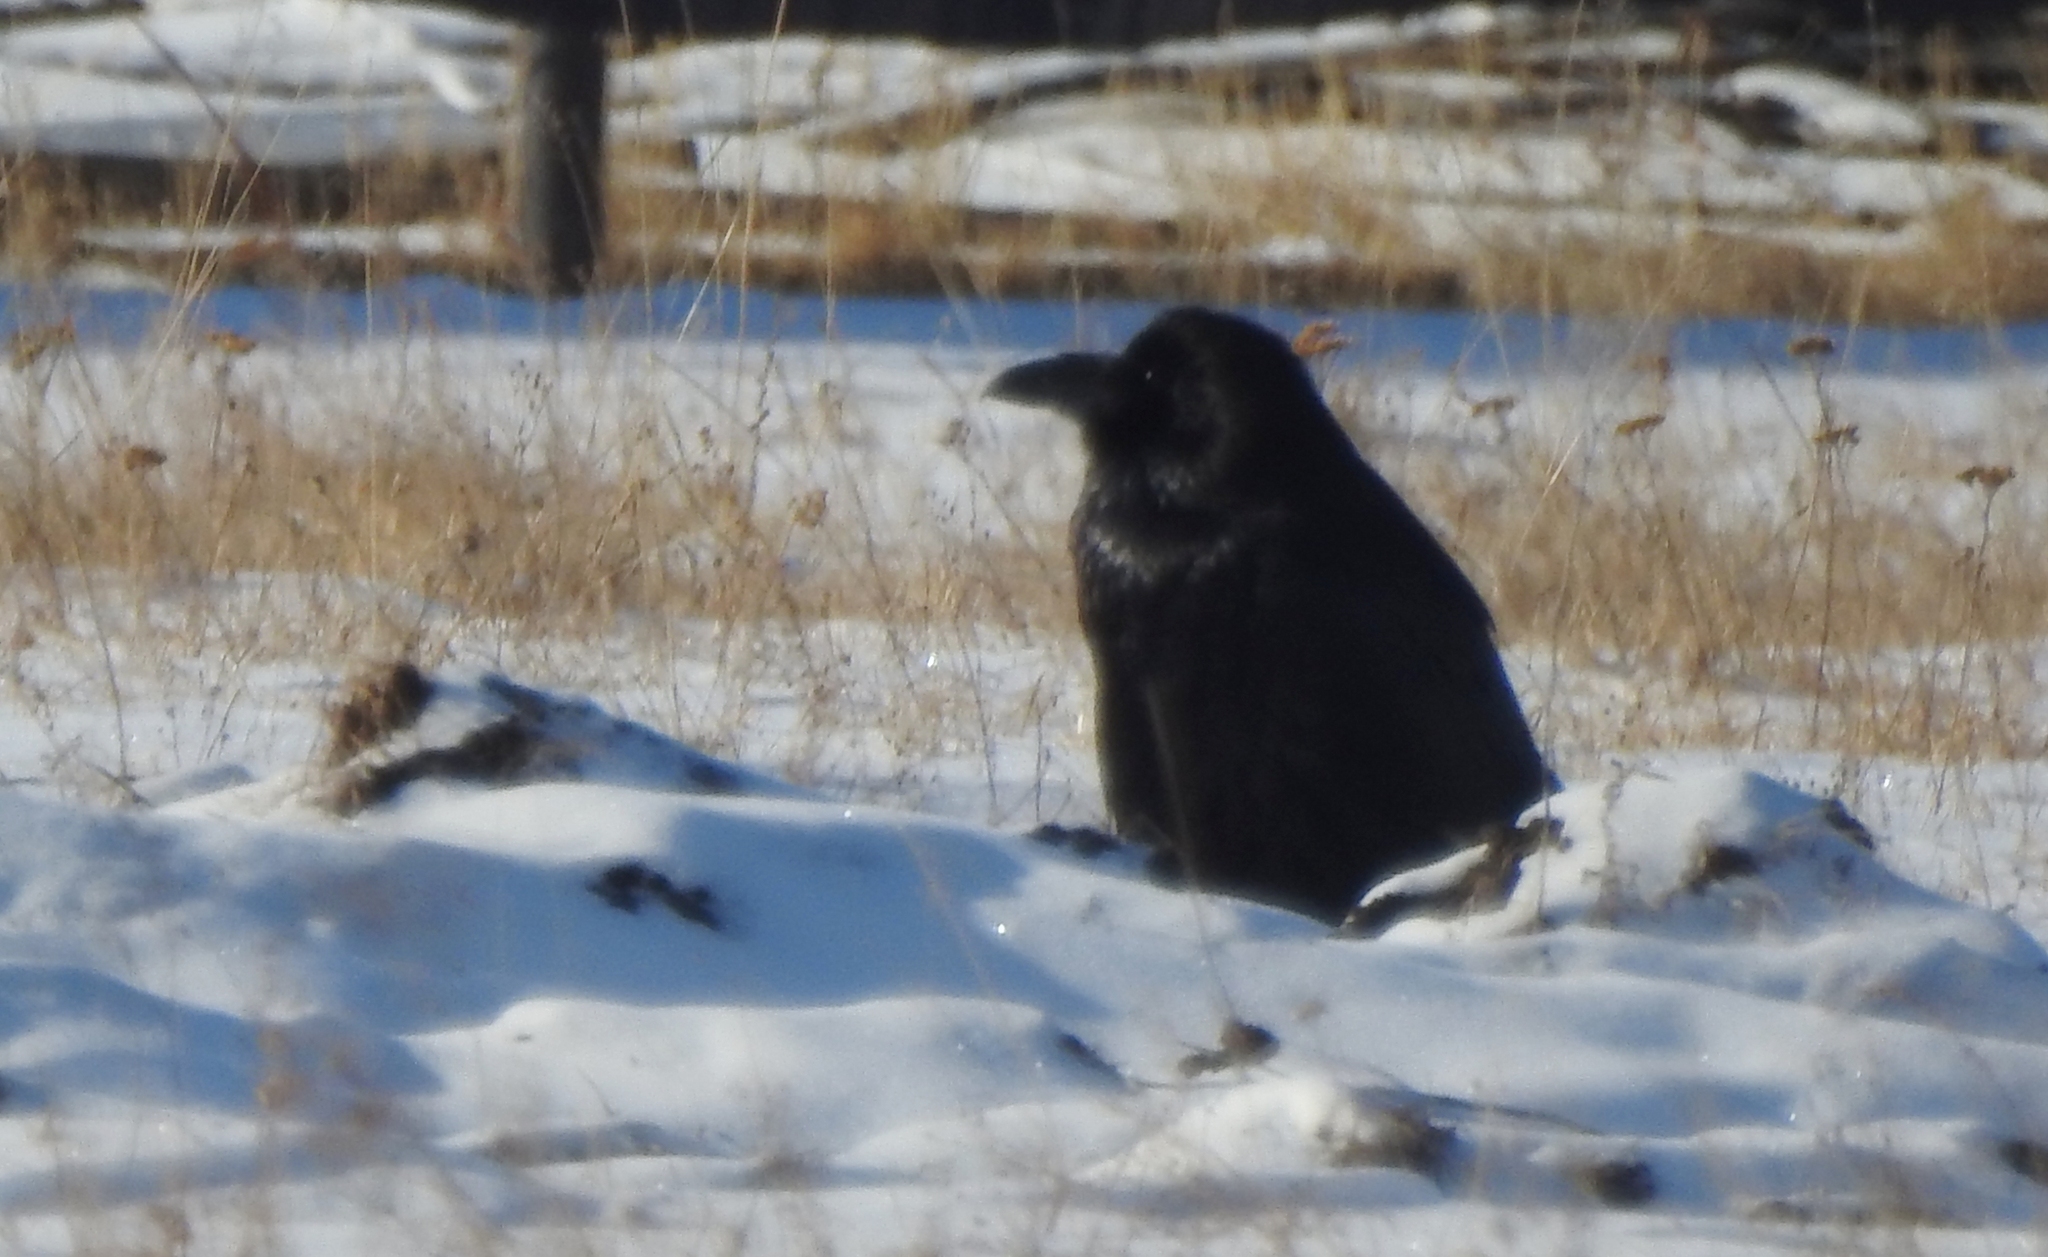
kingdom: Animalia
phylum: Chordata
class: Aves
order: Passeriformes
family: Corvidae
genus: Corvus
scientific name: Corvus corax
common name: Common raven
